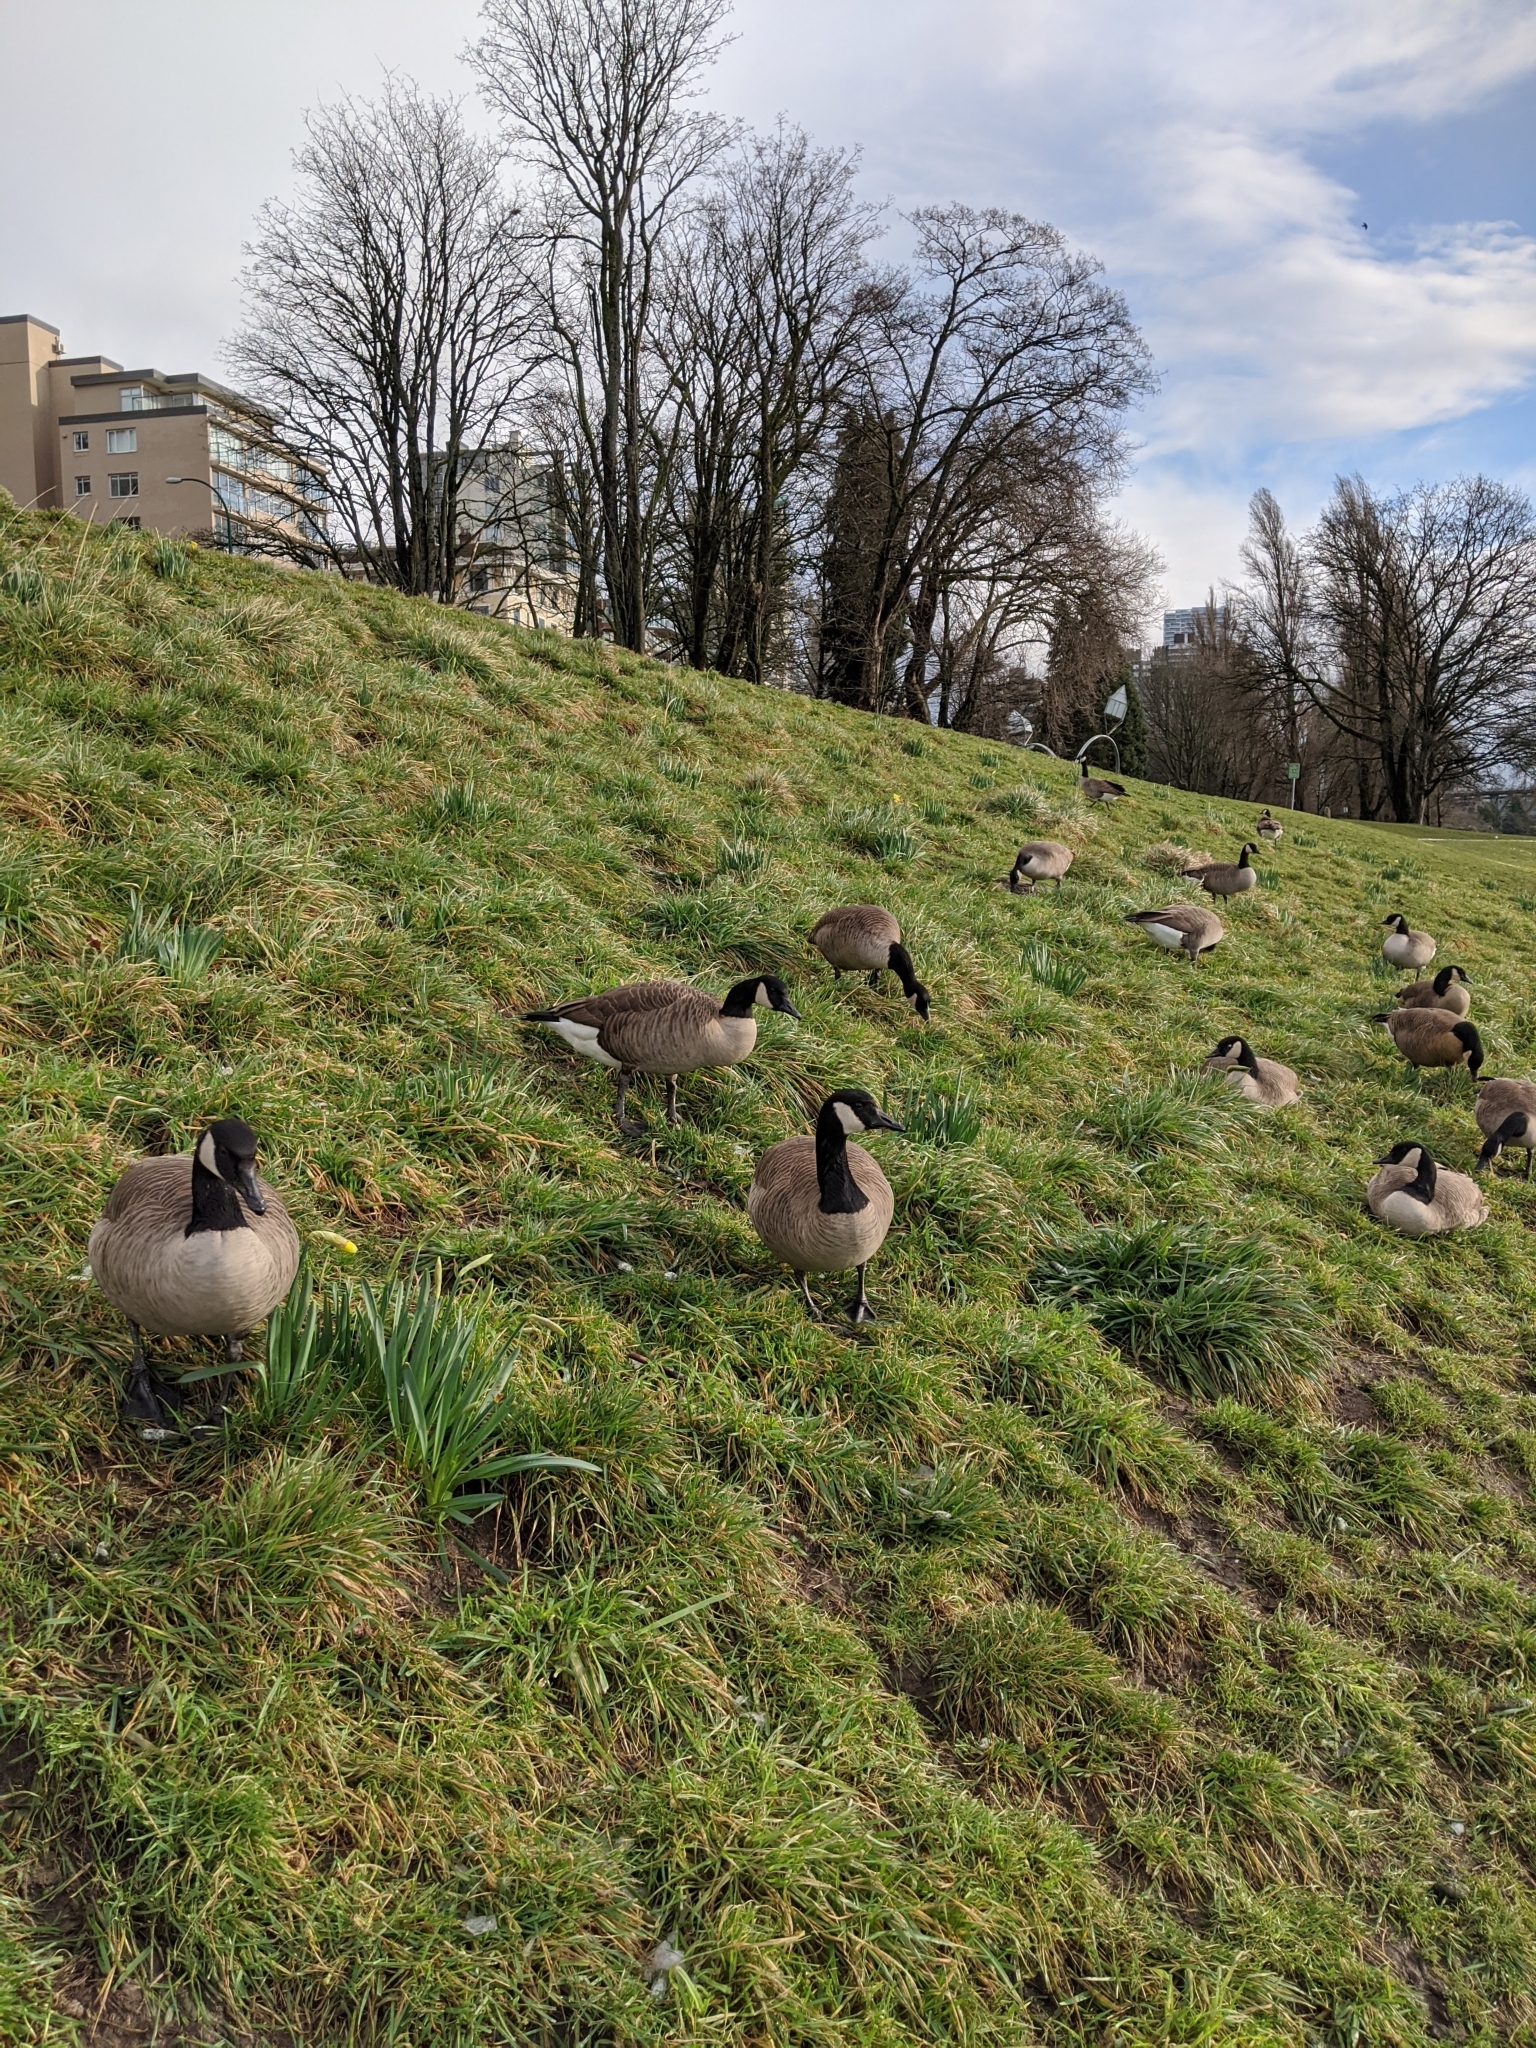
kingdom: Animalia
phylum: Chordata
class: Aves
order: Anseriformes
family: Anatidae
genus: Branta
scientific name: Branta canadensis
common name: Canada goose
